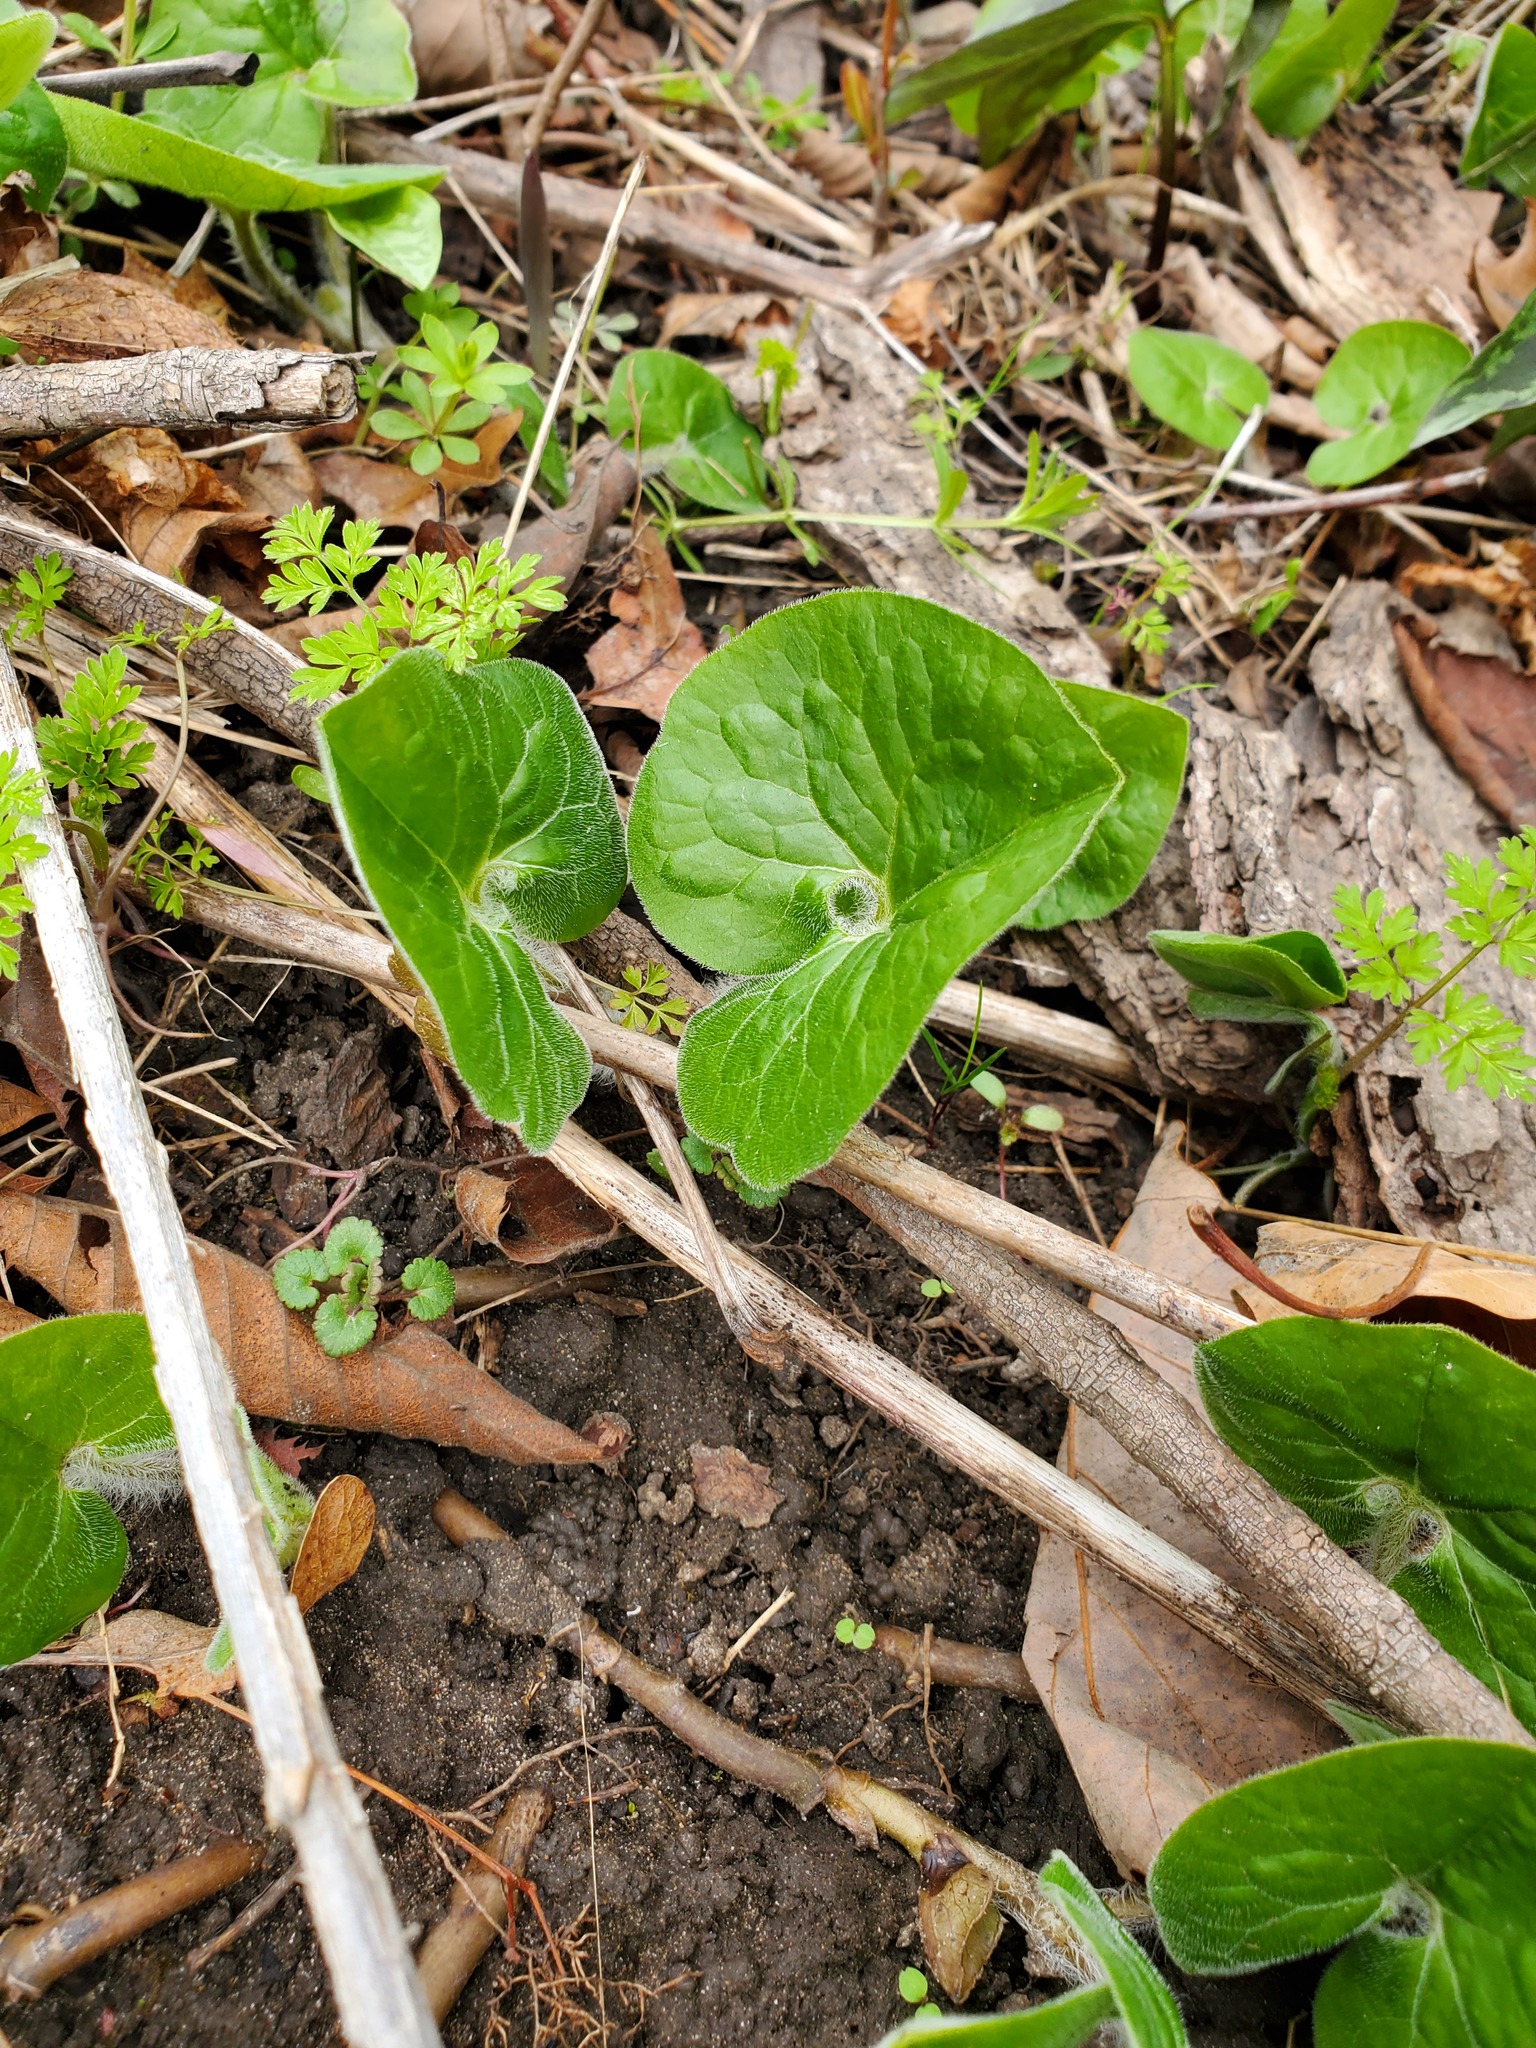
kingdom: Plantae
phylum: Tracheophyta
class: Magnoliopsida
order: Piperales
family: Aristolochiaceae
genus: Asarum
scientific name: Asarum canadense
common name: Wild ginger
